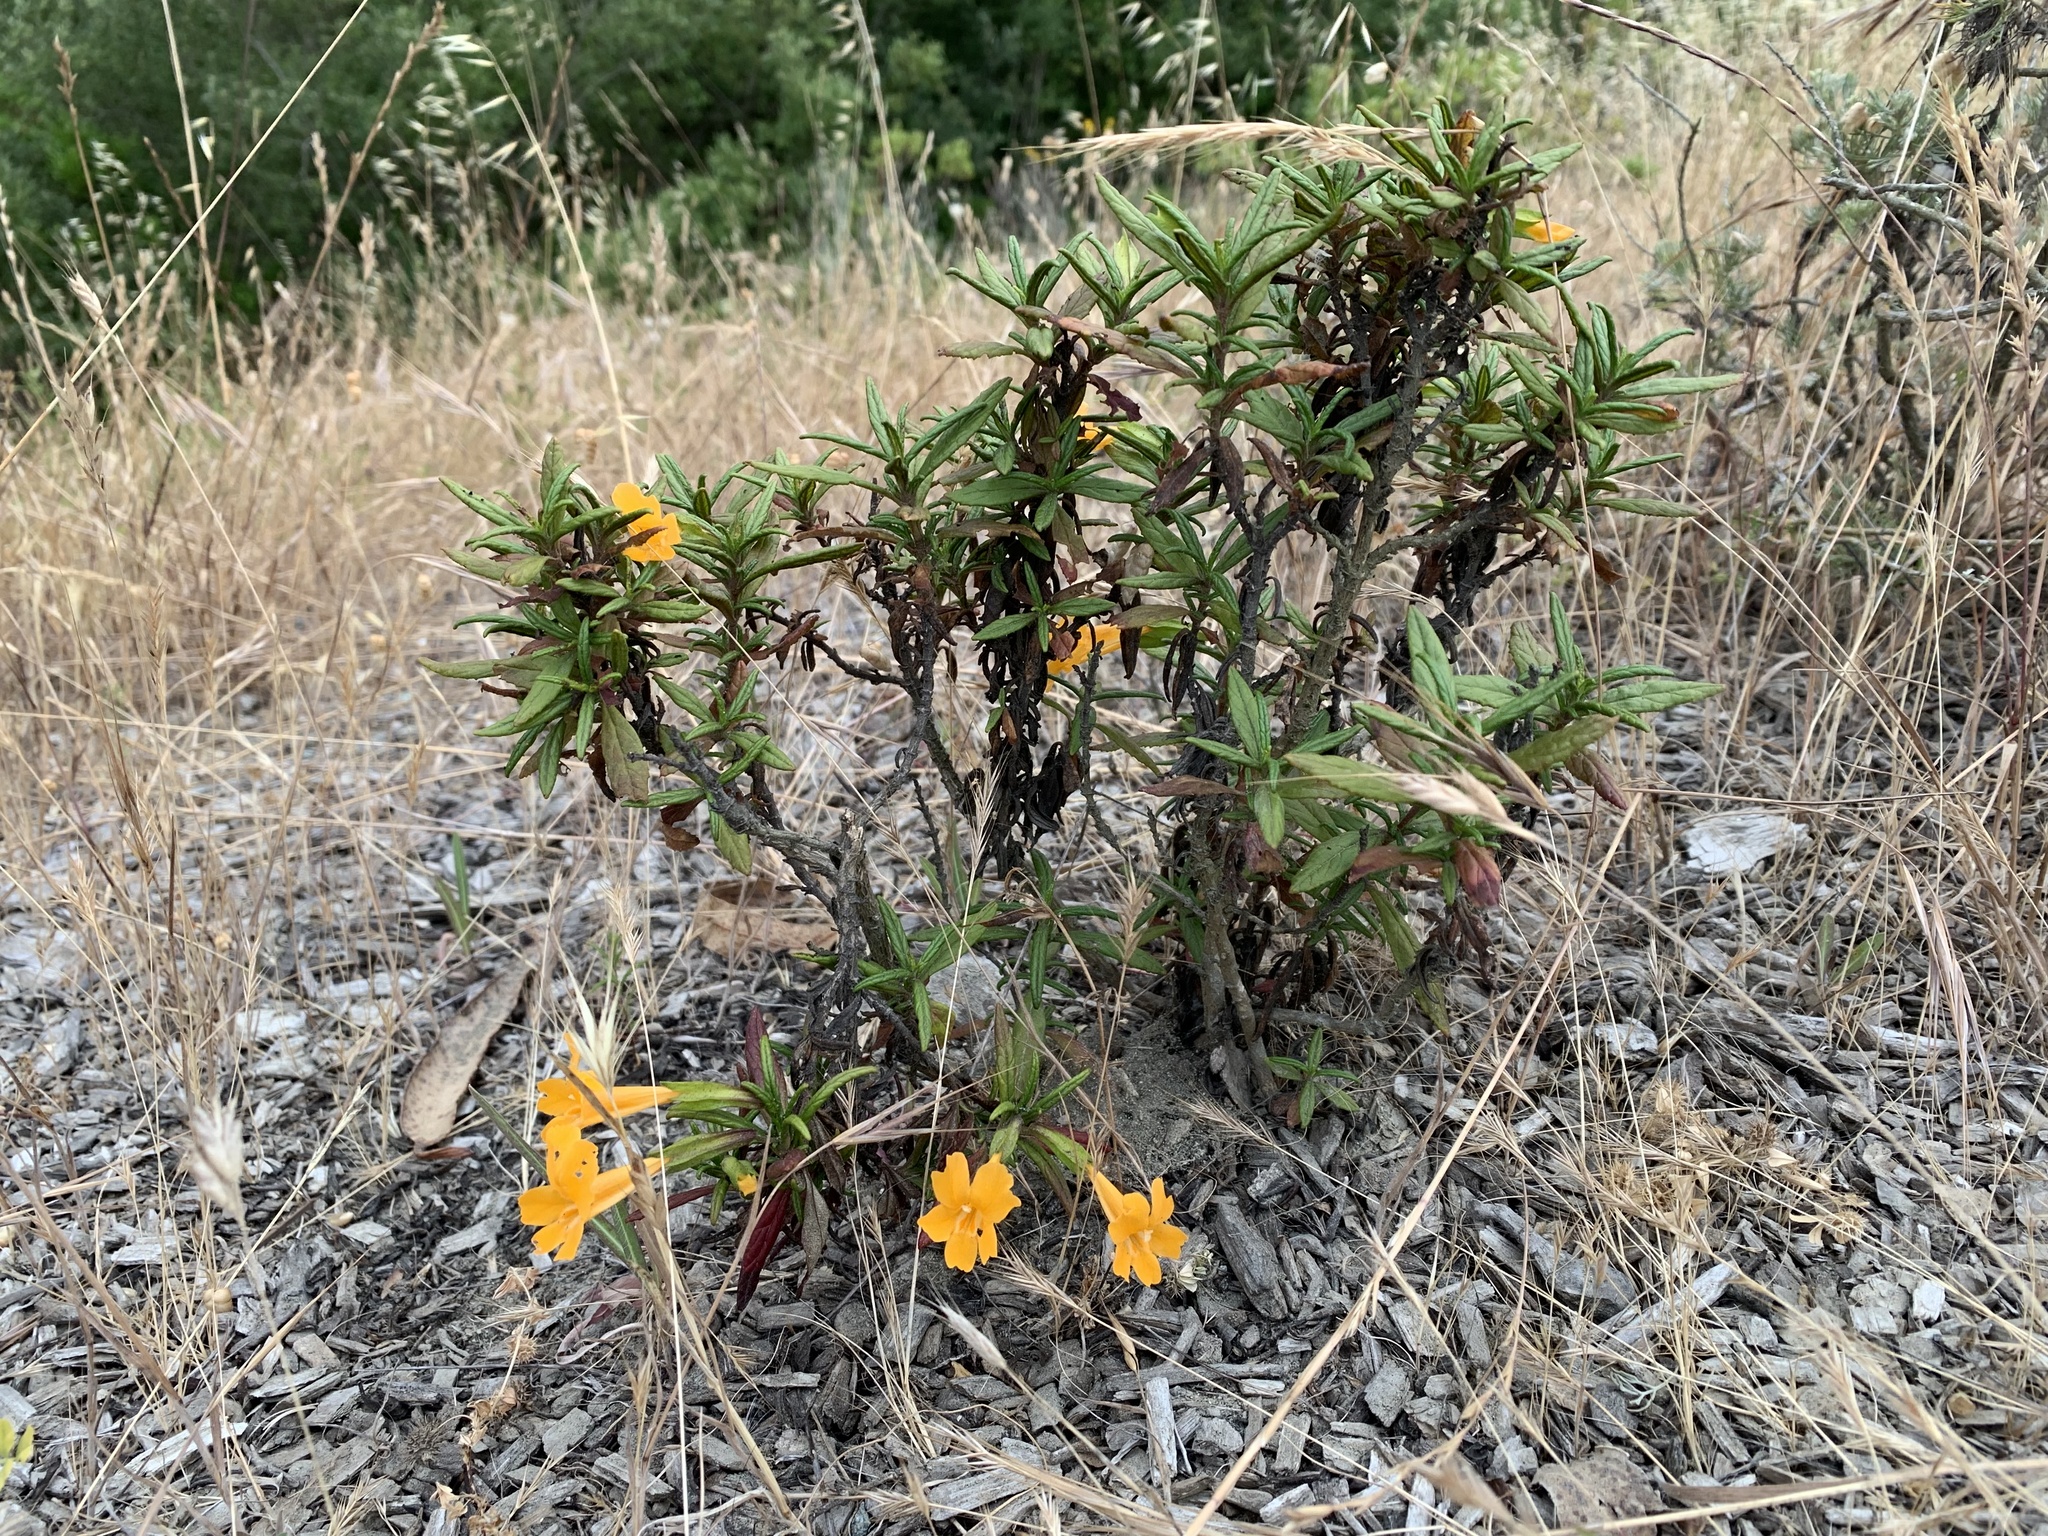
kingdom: Plantae
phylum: Tracheophyta
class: Magnoliopsida
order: Lamiales
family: Phrymaceae
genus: Diplacus
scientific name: Diplacus aurantiacus
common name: Bush monkey-flower
